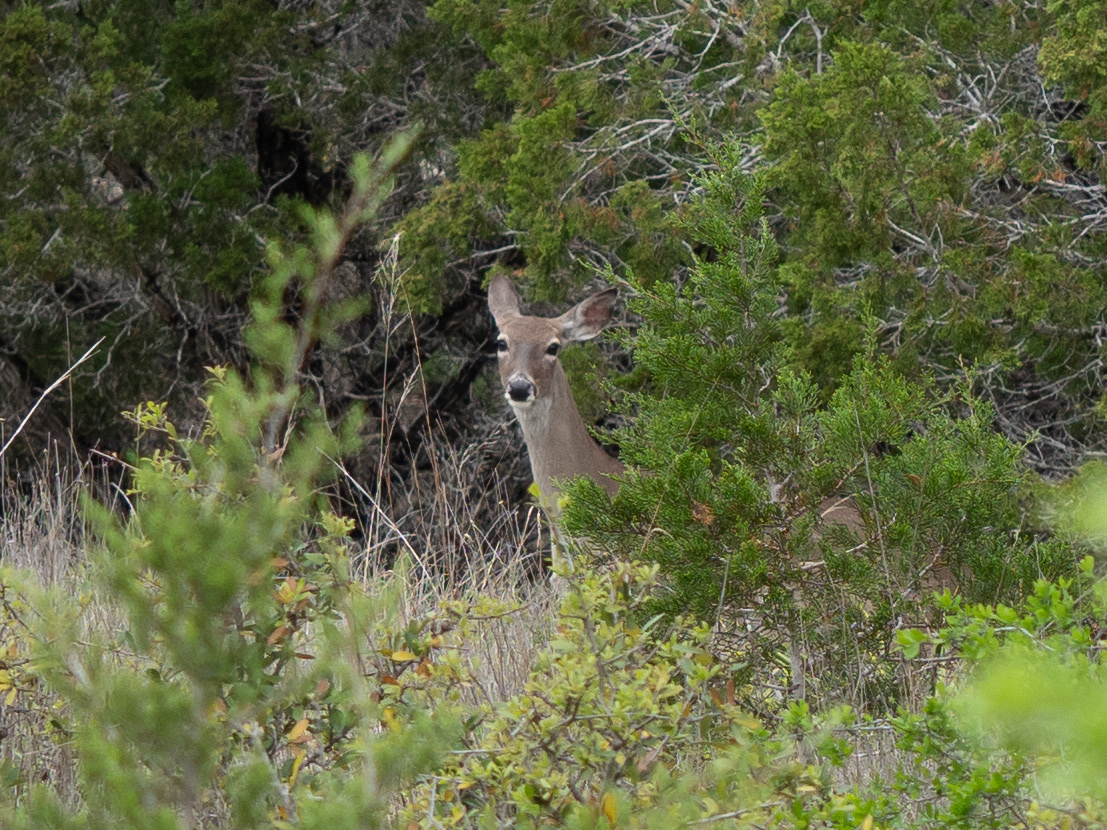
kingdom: Animalia
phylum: Chordata
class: Mammalia
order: Artiodactyla
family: Cervidae
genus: Odocoileus
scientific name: Odocoileus virginianus
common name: White-tailed deer
